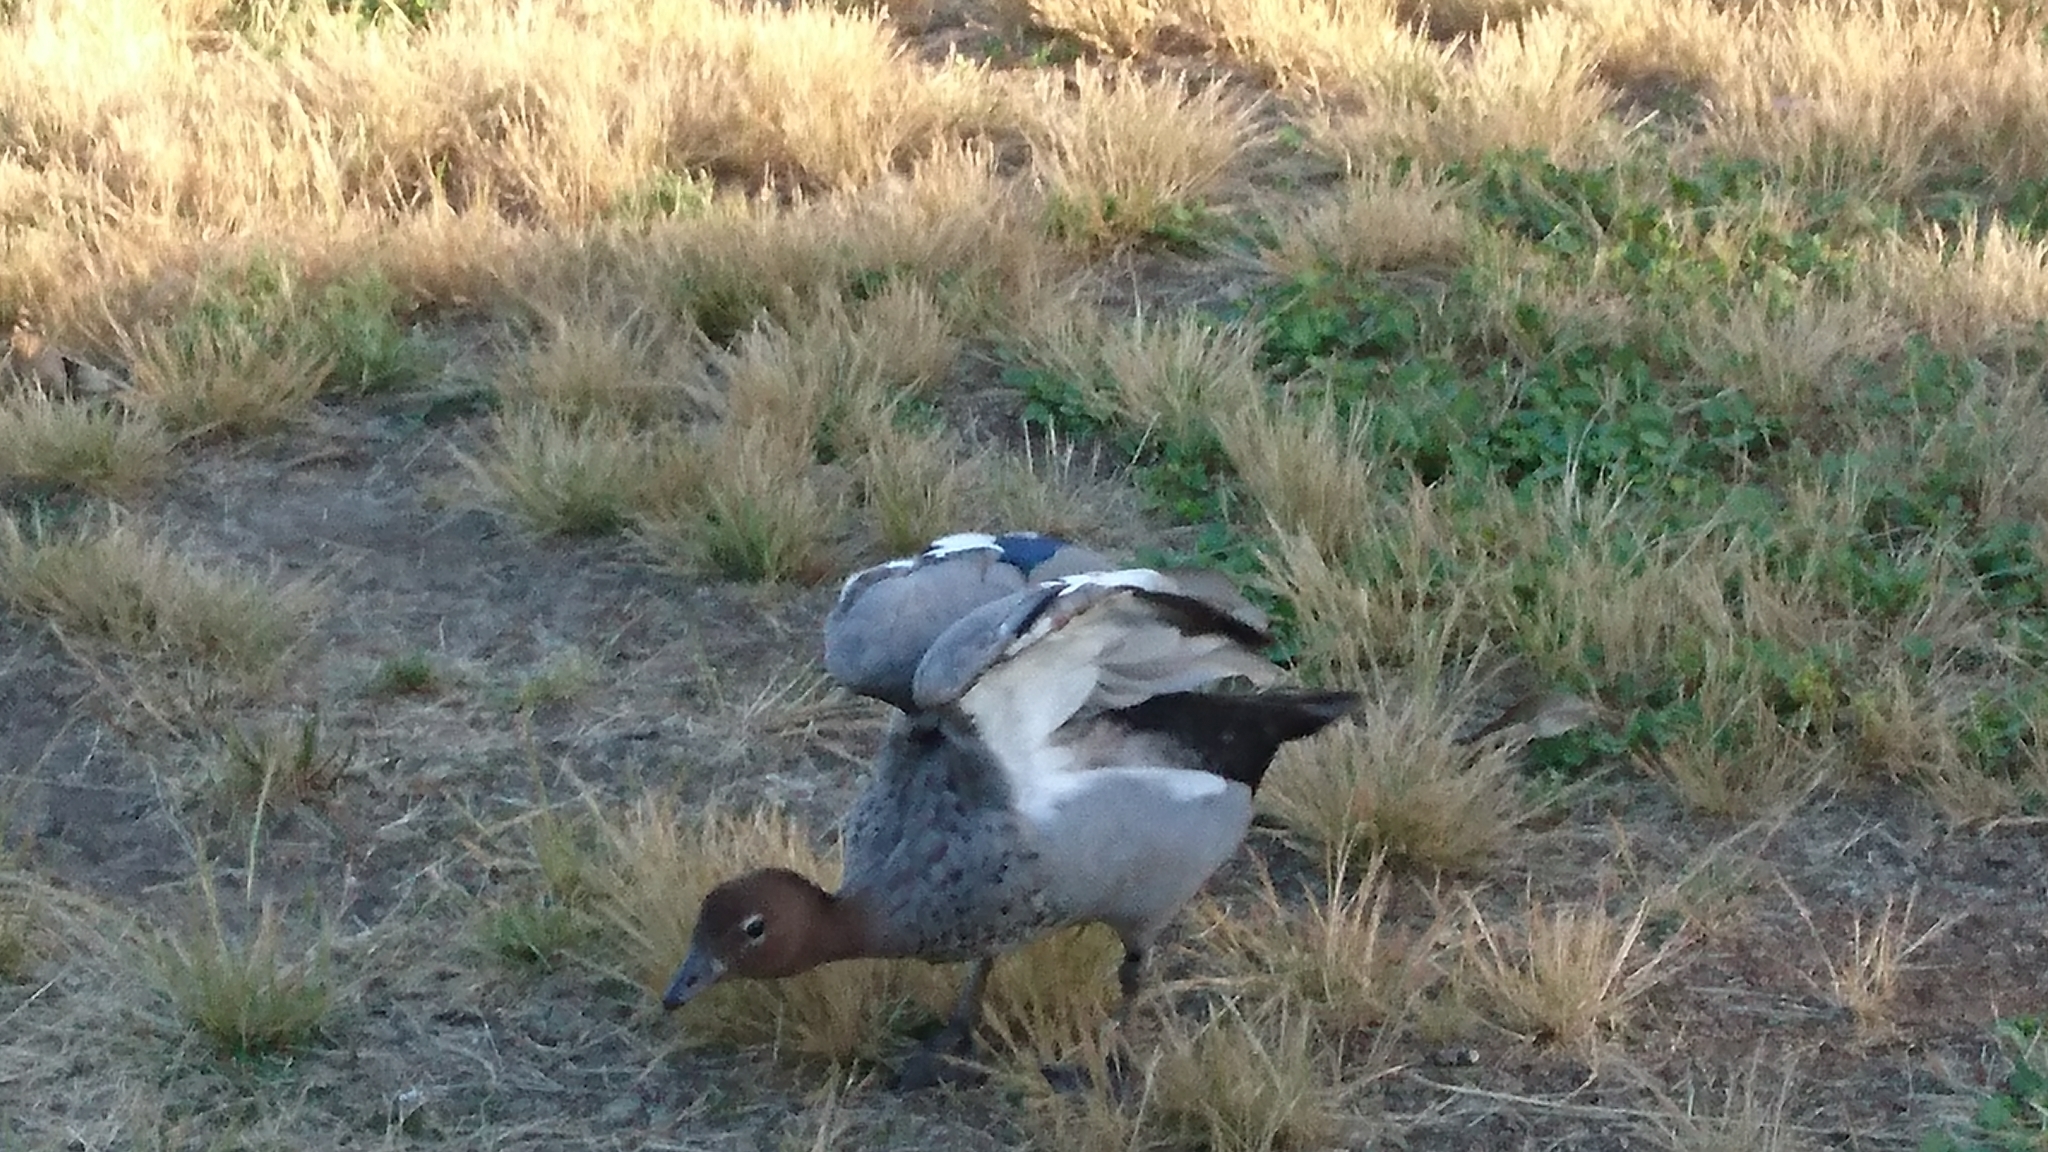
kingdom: Animalia
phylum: Chordata
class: Aves
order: Anseriformes
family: Anatidae
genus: Chenonetta
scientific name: Chenonetta jubata
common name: Maned duck
